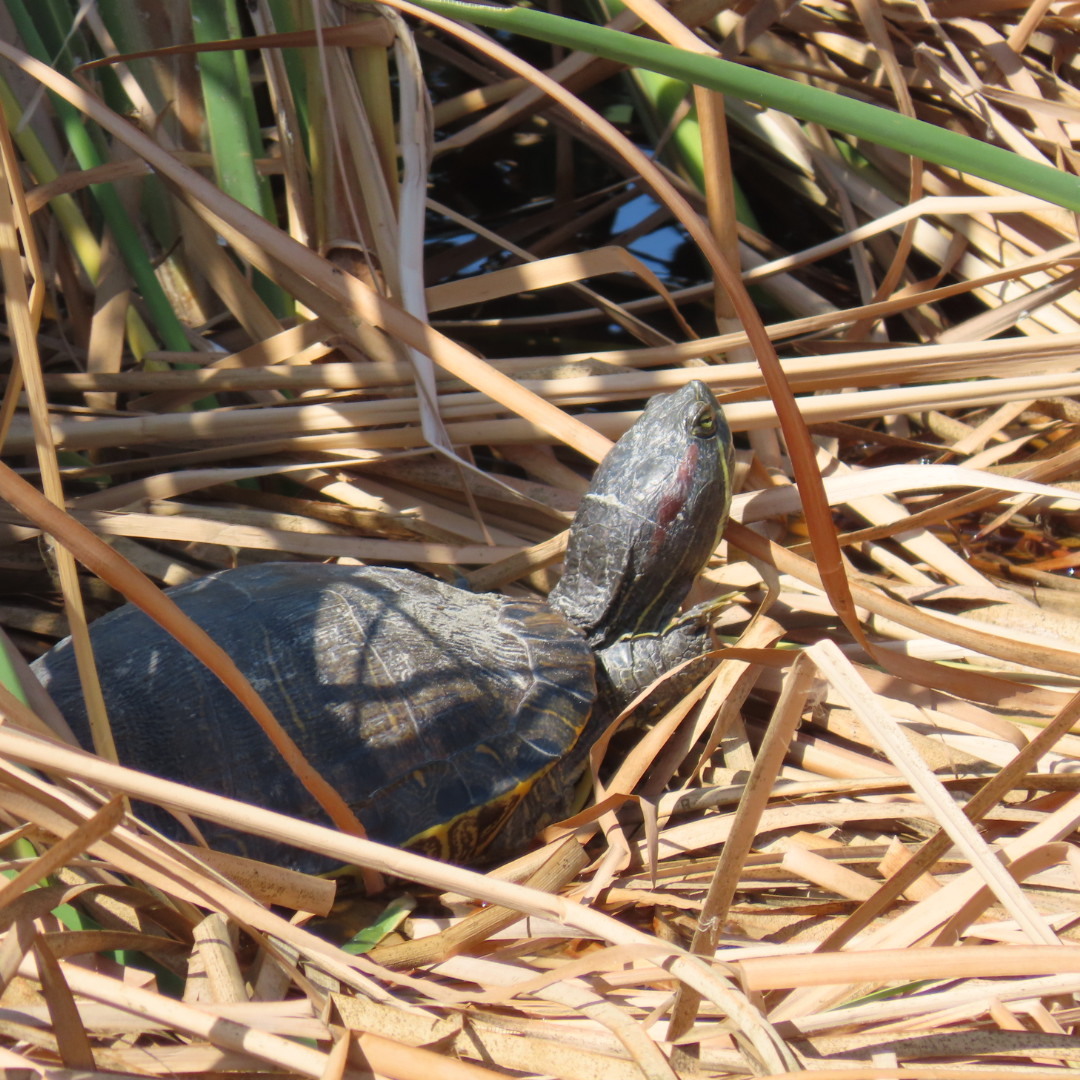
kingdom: Animalia
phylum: Chordata
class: Testudines
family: Emydidae
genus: Trachemys
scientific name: Trachemys scripta
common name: Slider
